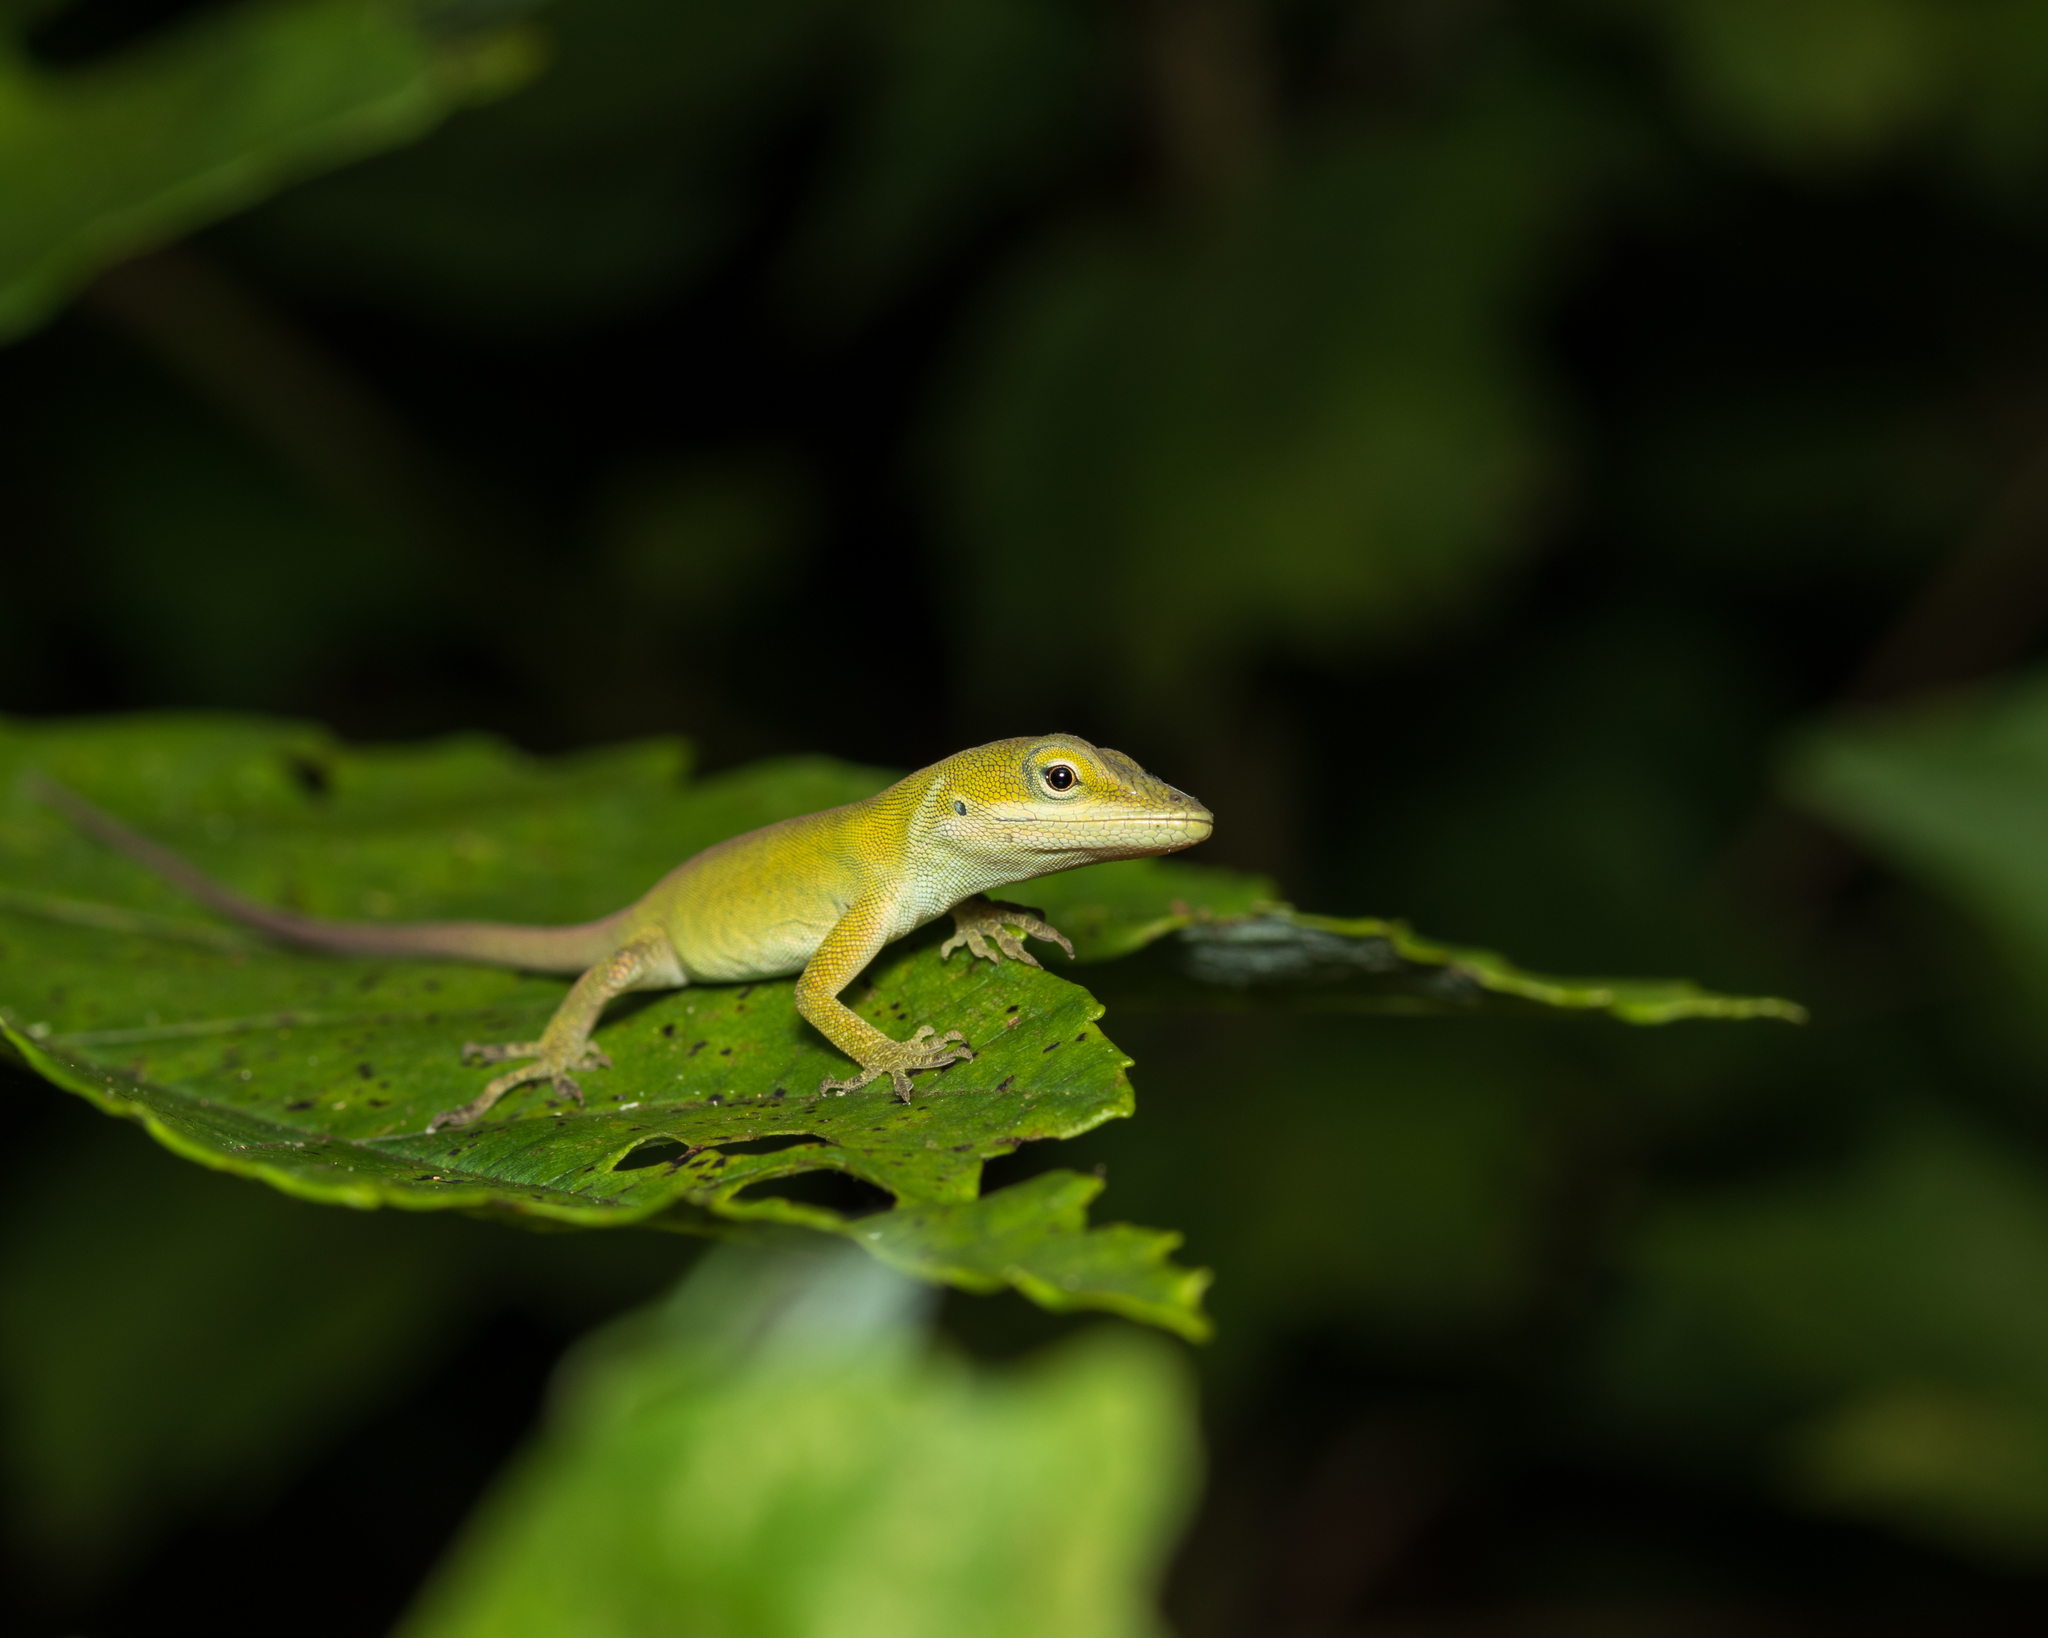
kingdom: Animalia
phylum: Chordata
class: Squamata
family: Dactyloidae
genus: Anolis
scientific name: Anolis carolinensis
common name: Green anole
